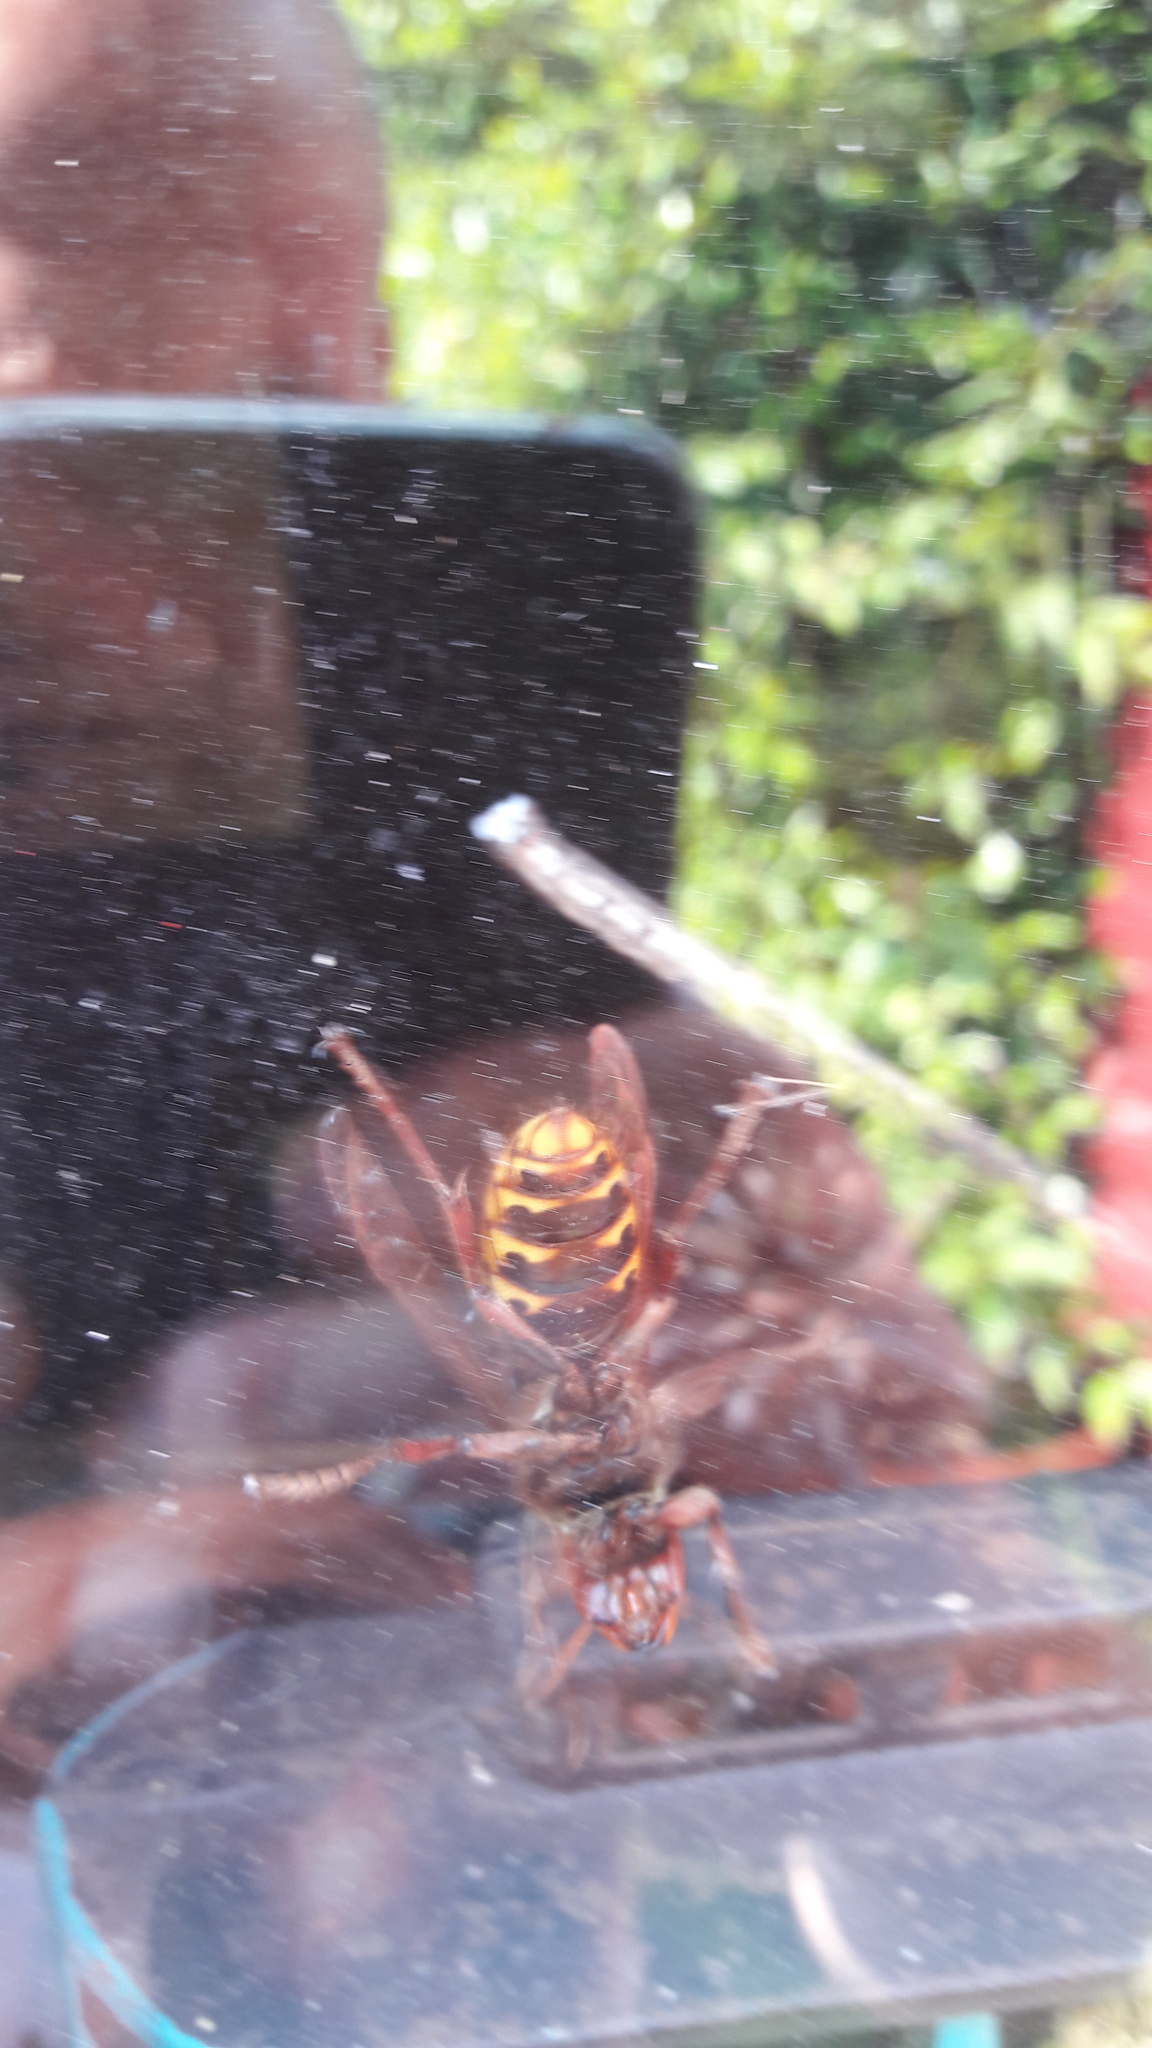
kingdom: Animalia
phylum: Arthropoda
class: Insecta
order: Hymenoptera
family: Vespidae
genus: Vespa
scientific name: Vespa crabro
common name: Hornet
